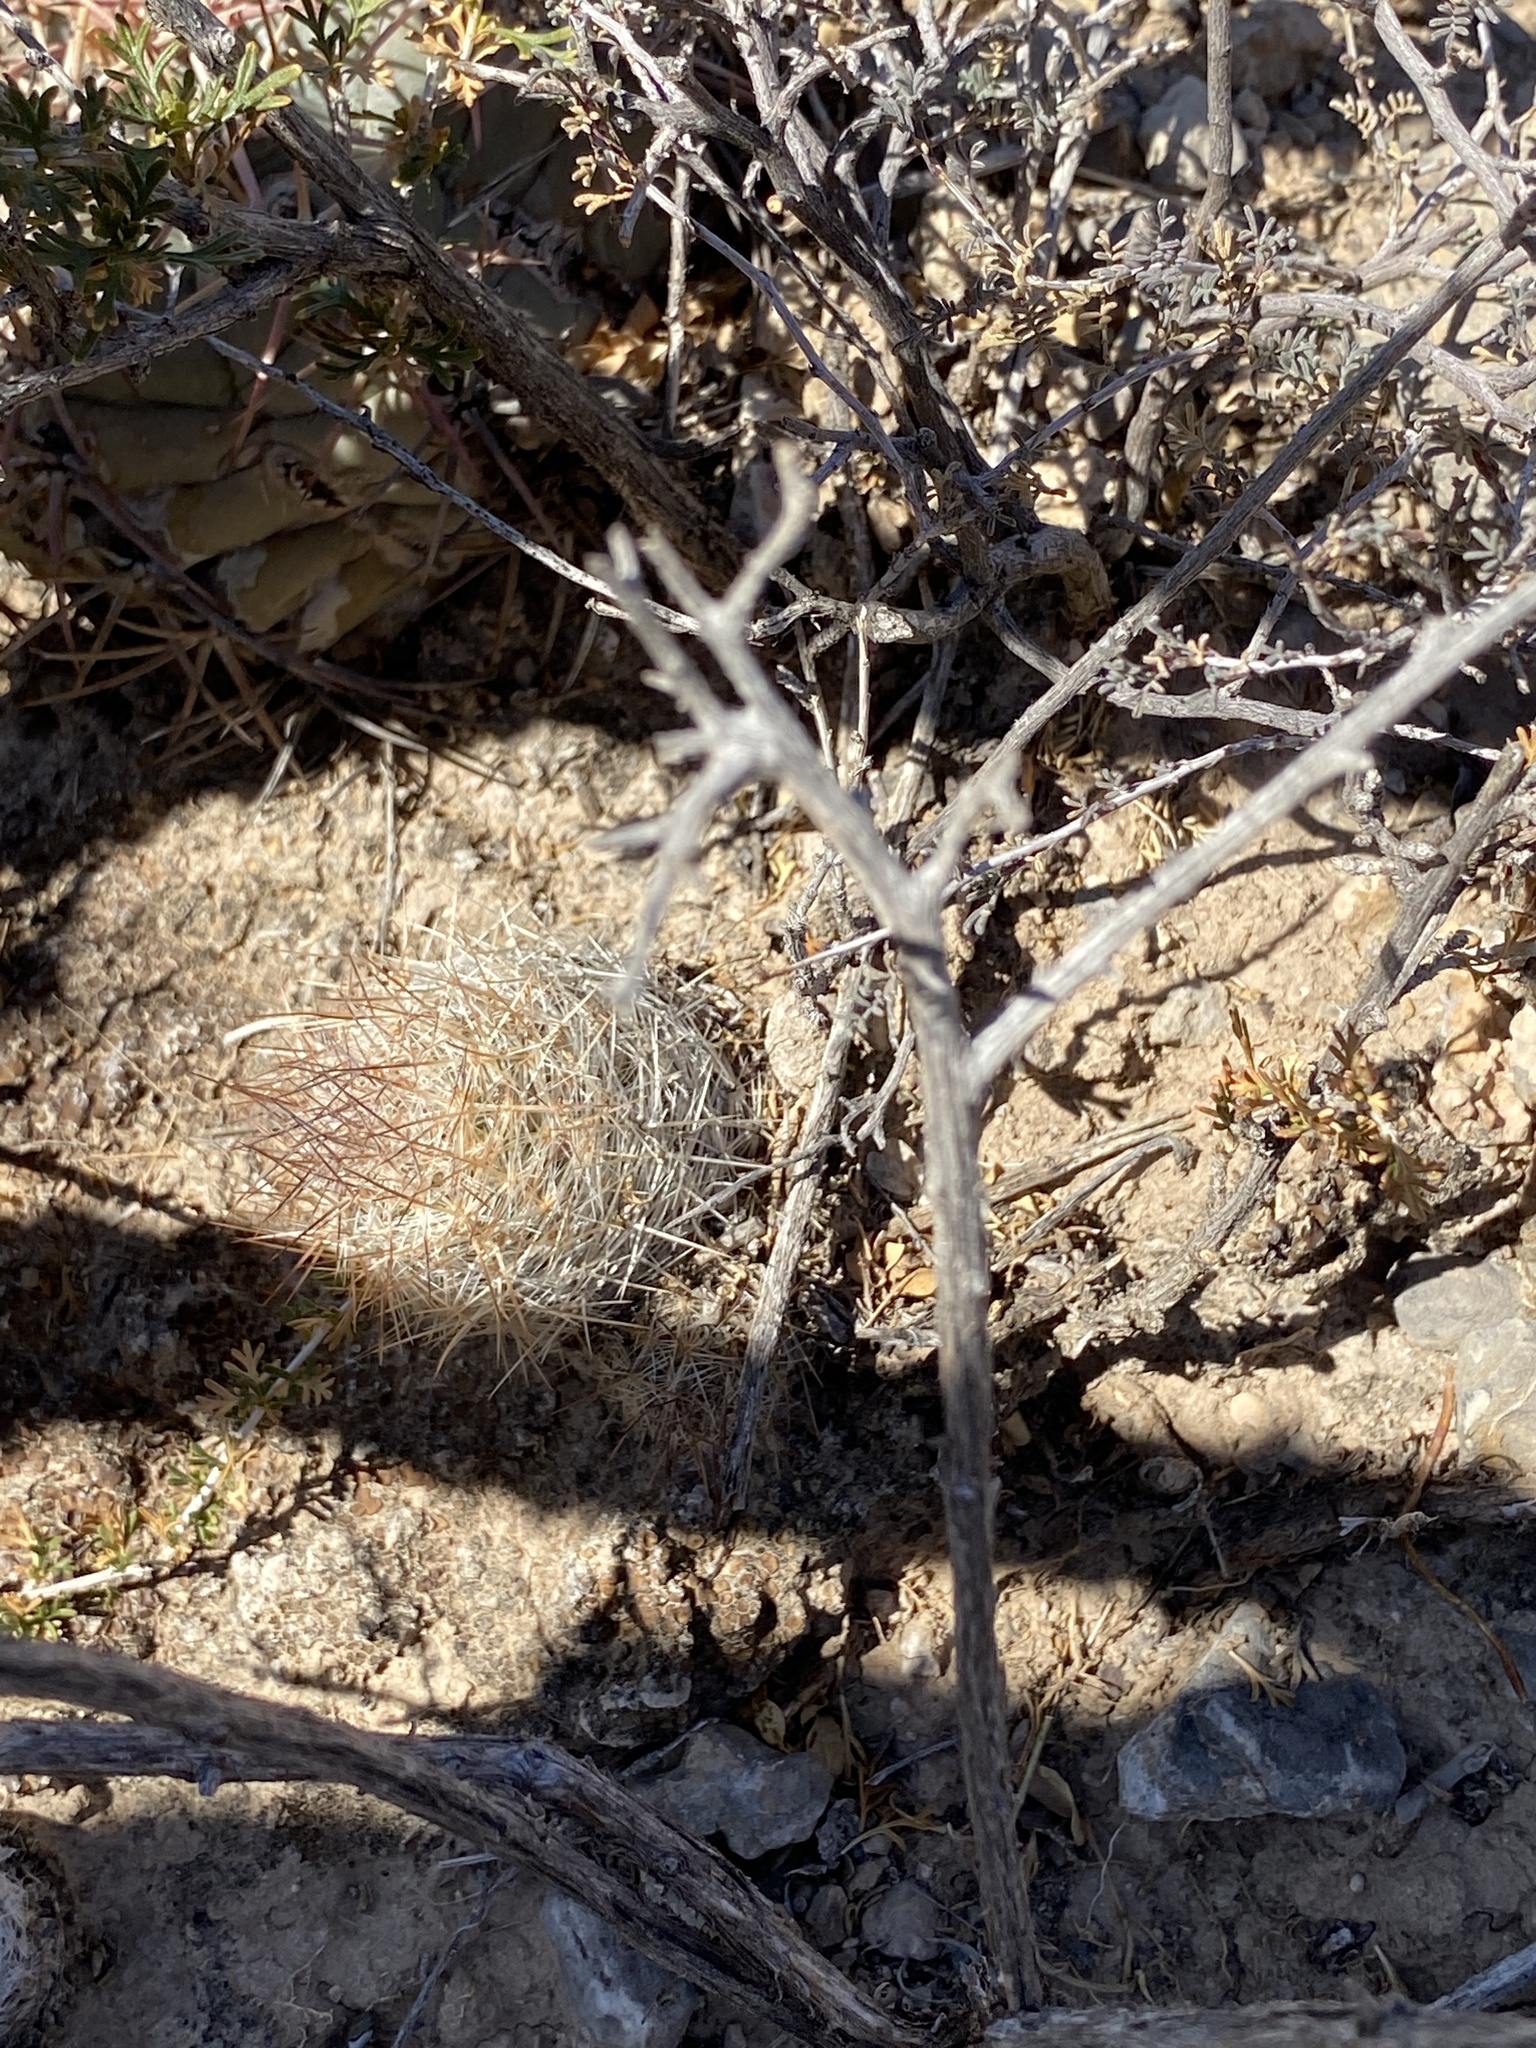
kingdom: Plantae
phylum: Tracheophyta
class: Magnoliopsida
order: Caryophyllales
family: Cactaceae
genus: Pelecyphora
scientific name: Pelecyphora tuberculosa
